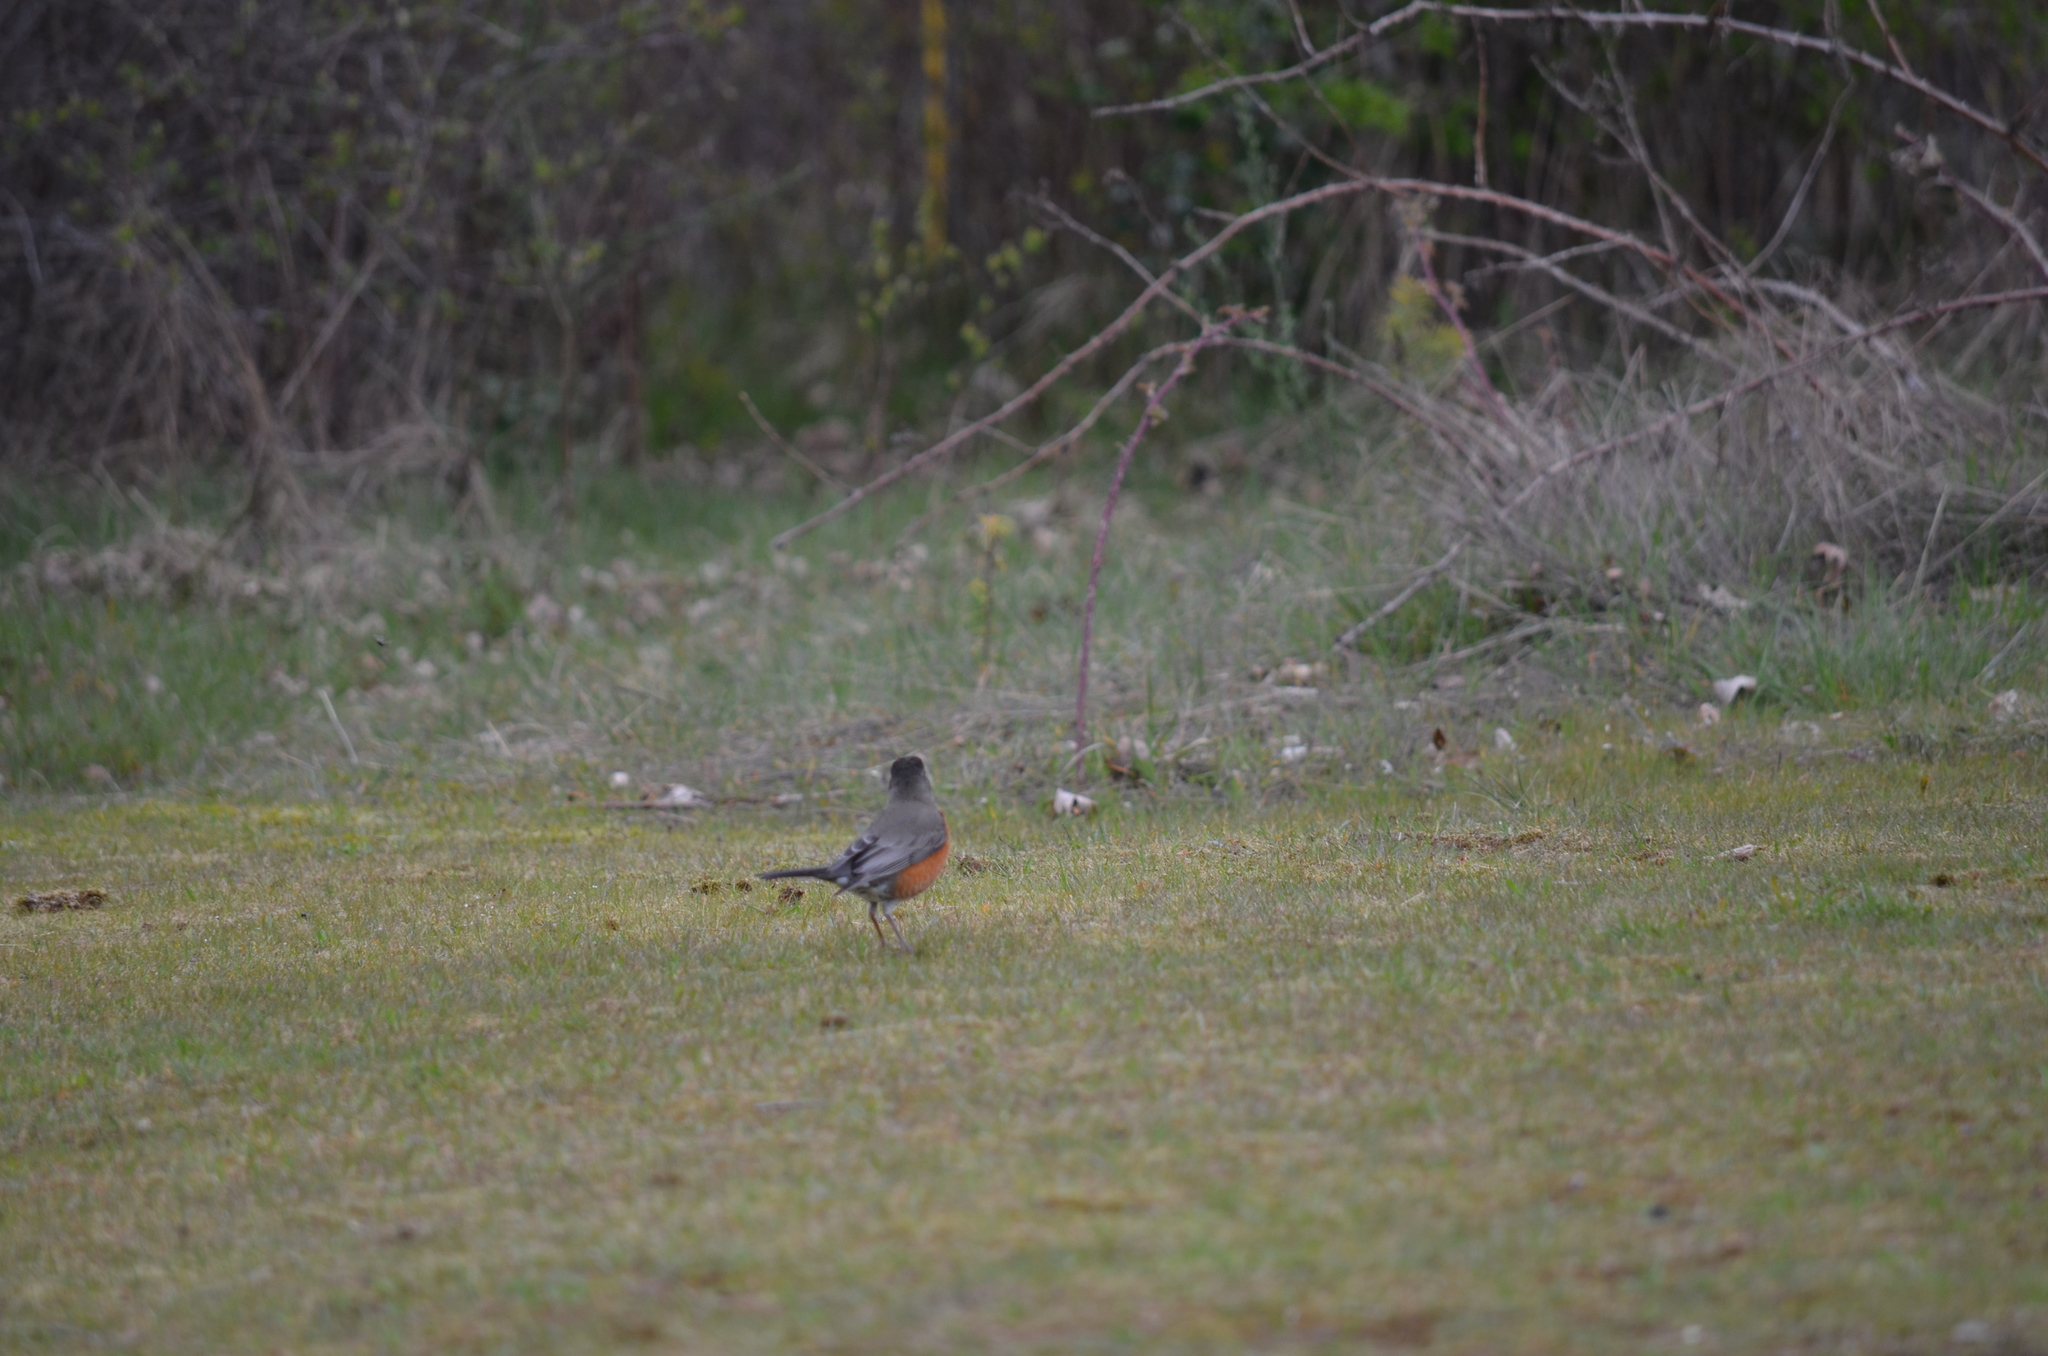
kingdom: Animalia
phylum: Chordata
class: Aves
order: Passeriformes
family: Turdidae
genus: Turdus
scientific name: Turdus migratorius
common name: American robin
